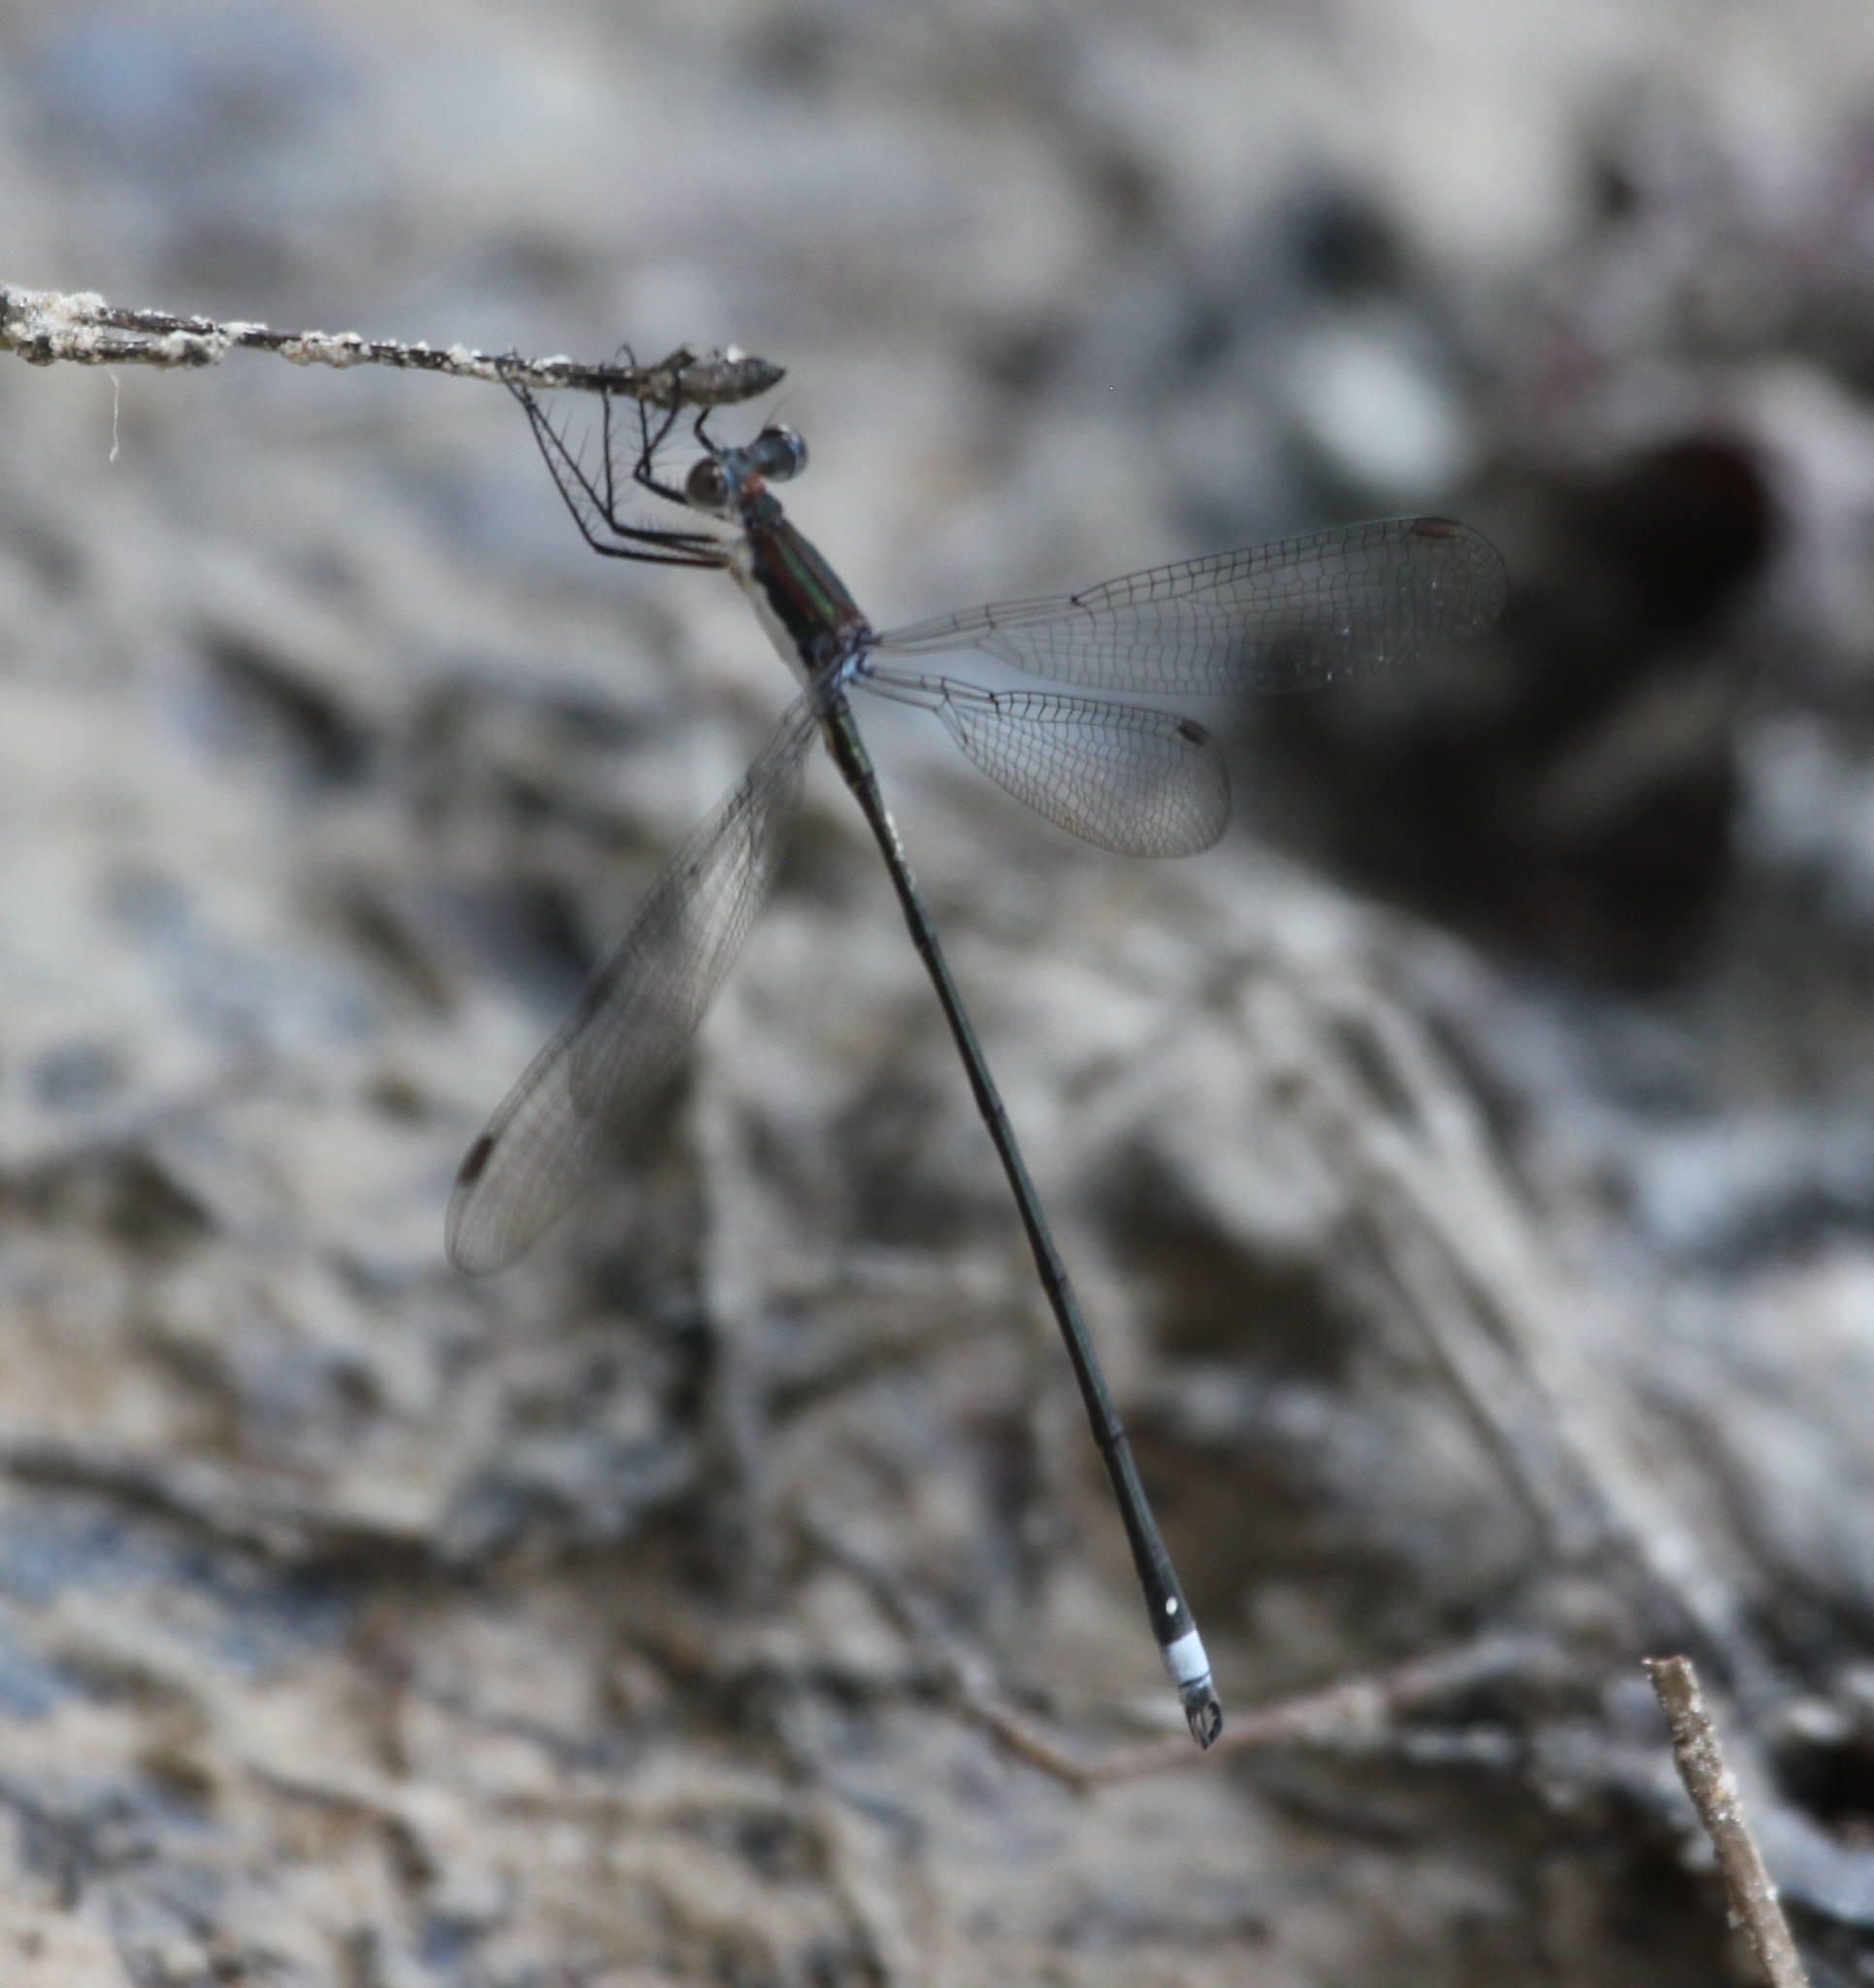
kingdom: Animalia
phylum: Arthropoda
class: Insecta
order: Odonata
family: Lestidae
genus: Lestes
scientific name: Lestes vigilax
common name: Swamp spreadwing
